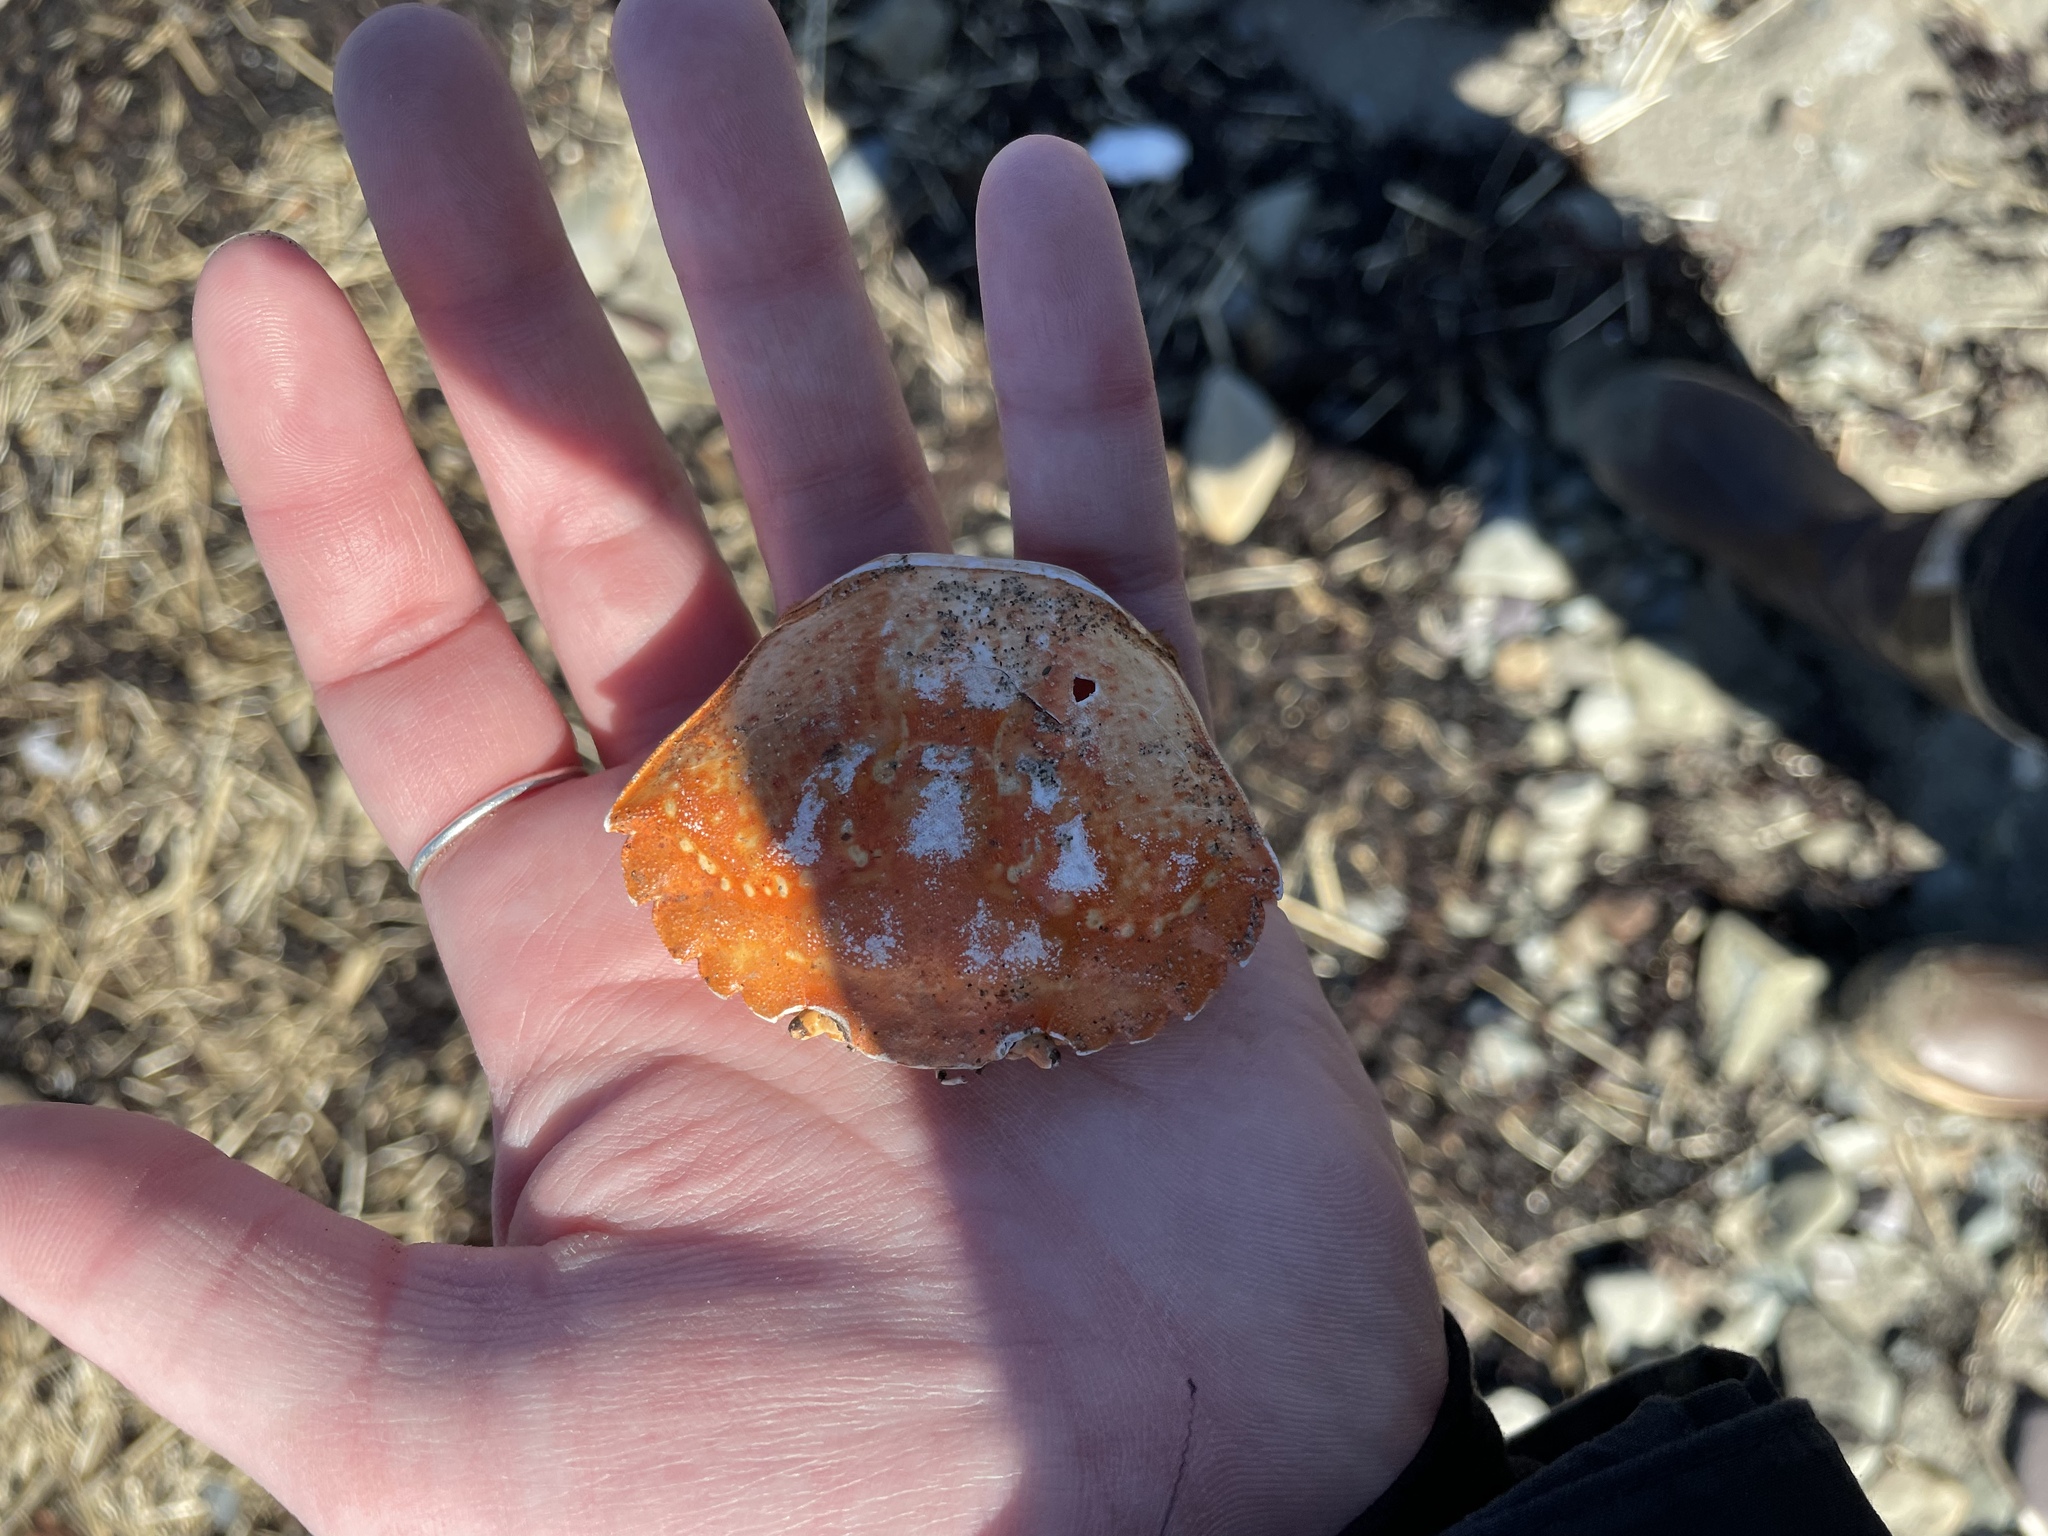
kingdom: Animalia
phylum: Arthropoda
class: Malacostraca
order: Decapoda
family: Carcinidae
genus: Carcinus
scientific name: Carcinus maenas
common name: European green crab
